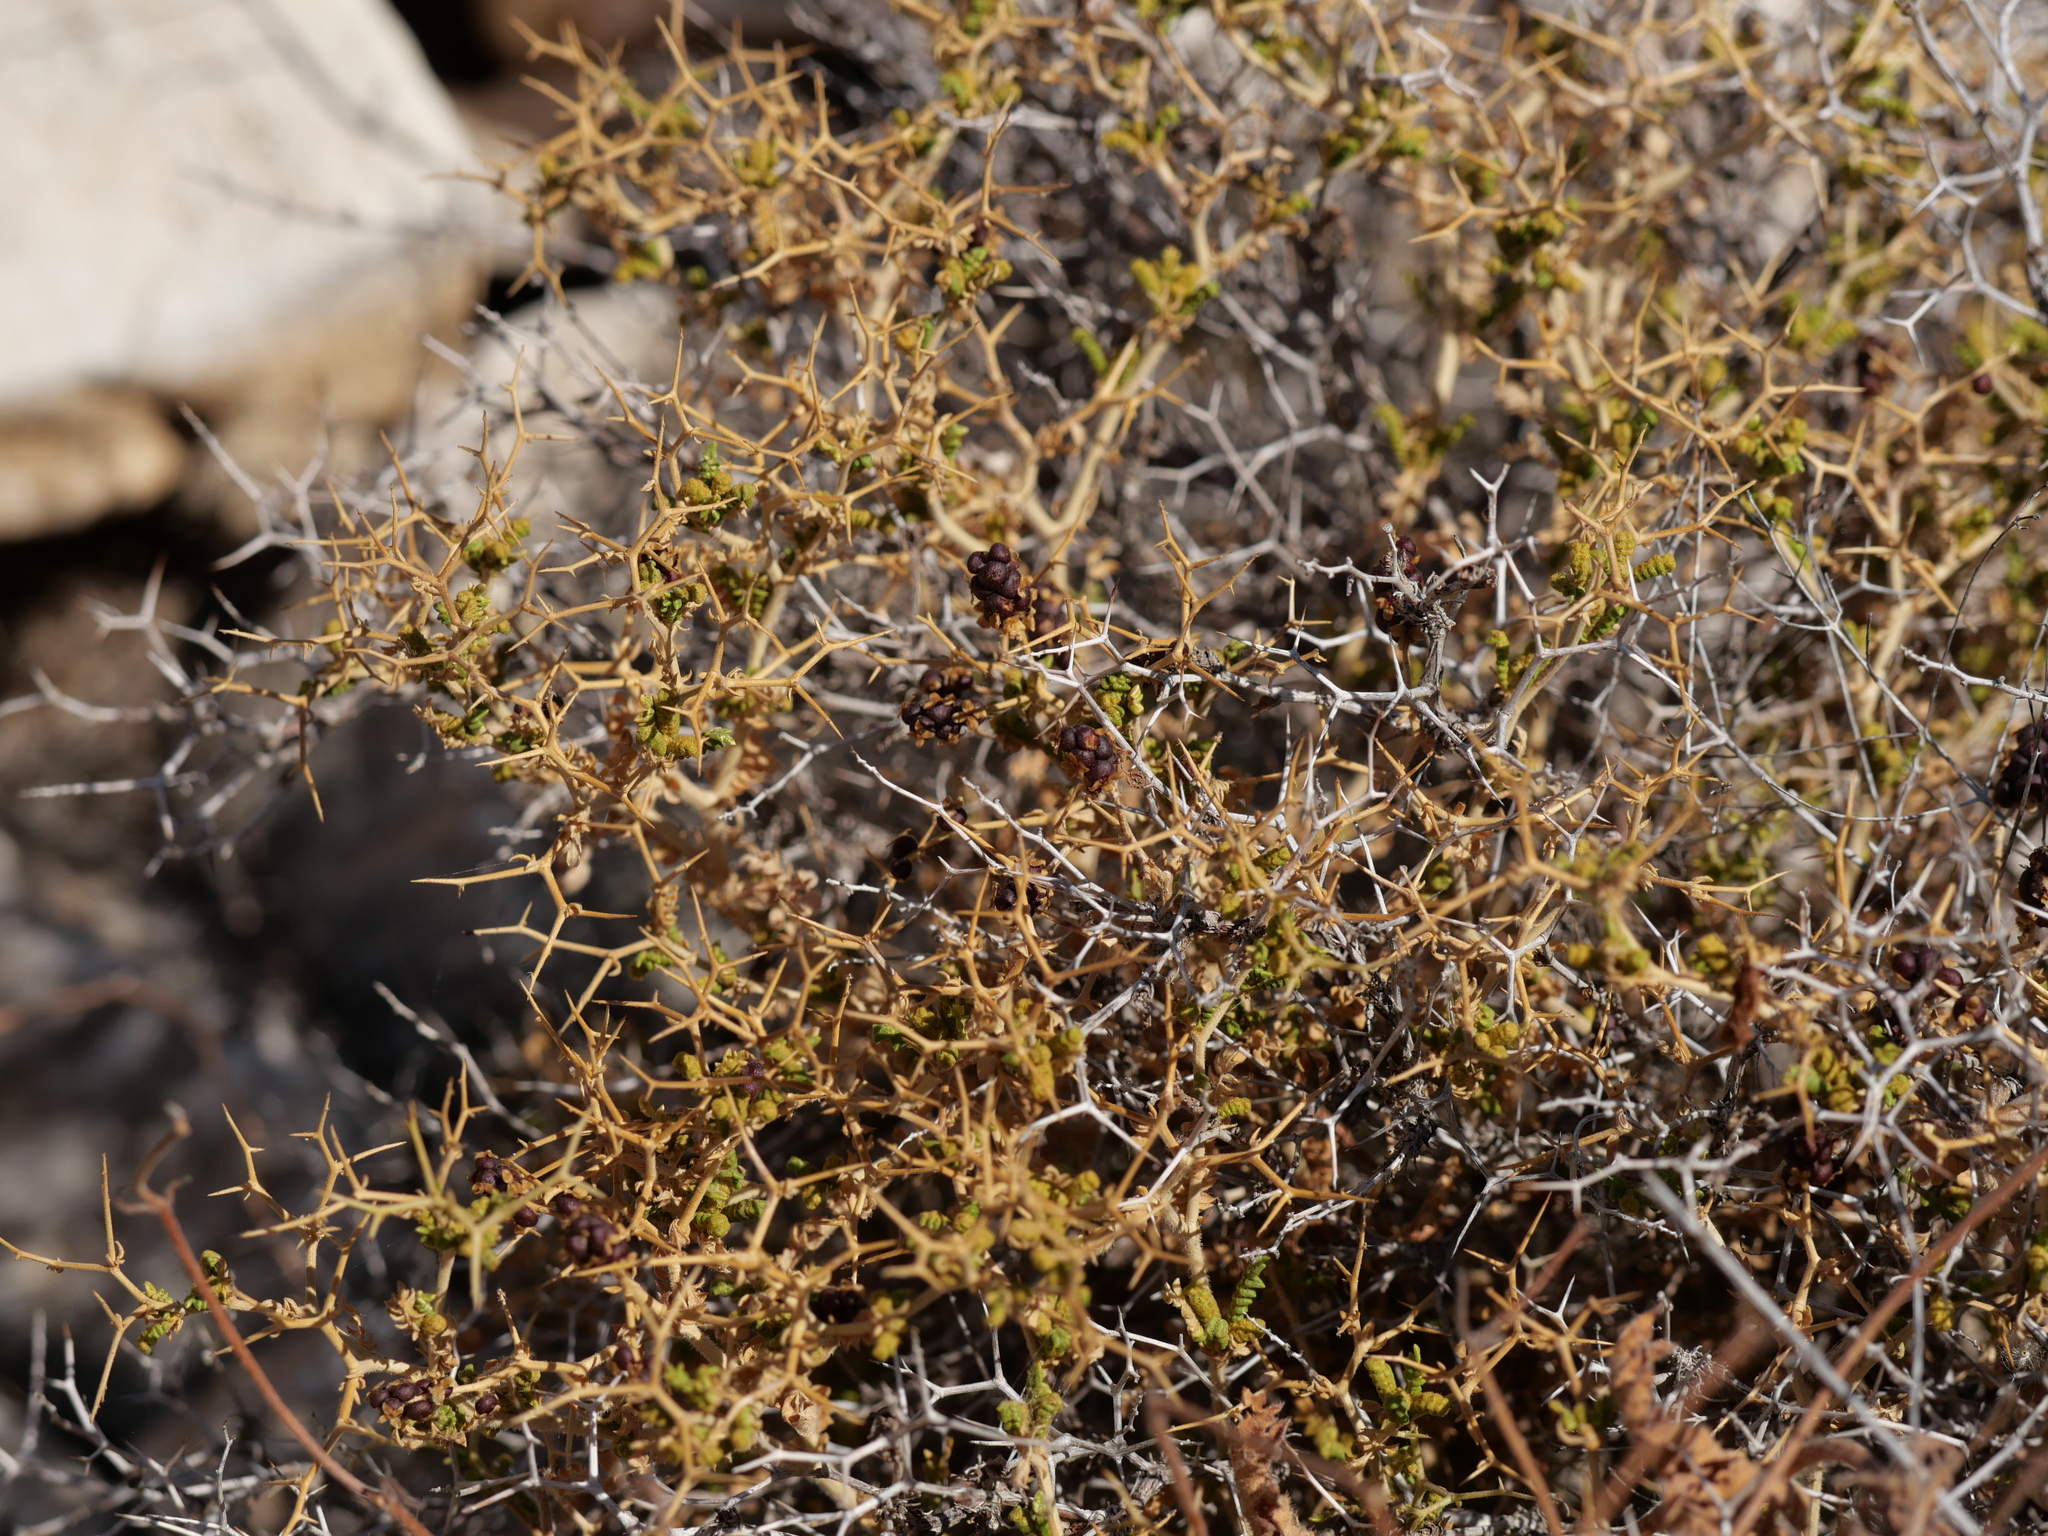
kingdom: Plantae
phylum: Tracheophyta
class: Magnoliopsida
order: Rosales
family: Rosaceae
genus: Sarcopoterium
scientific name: Sarcopoterium spinosum
